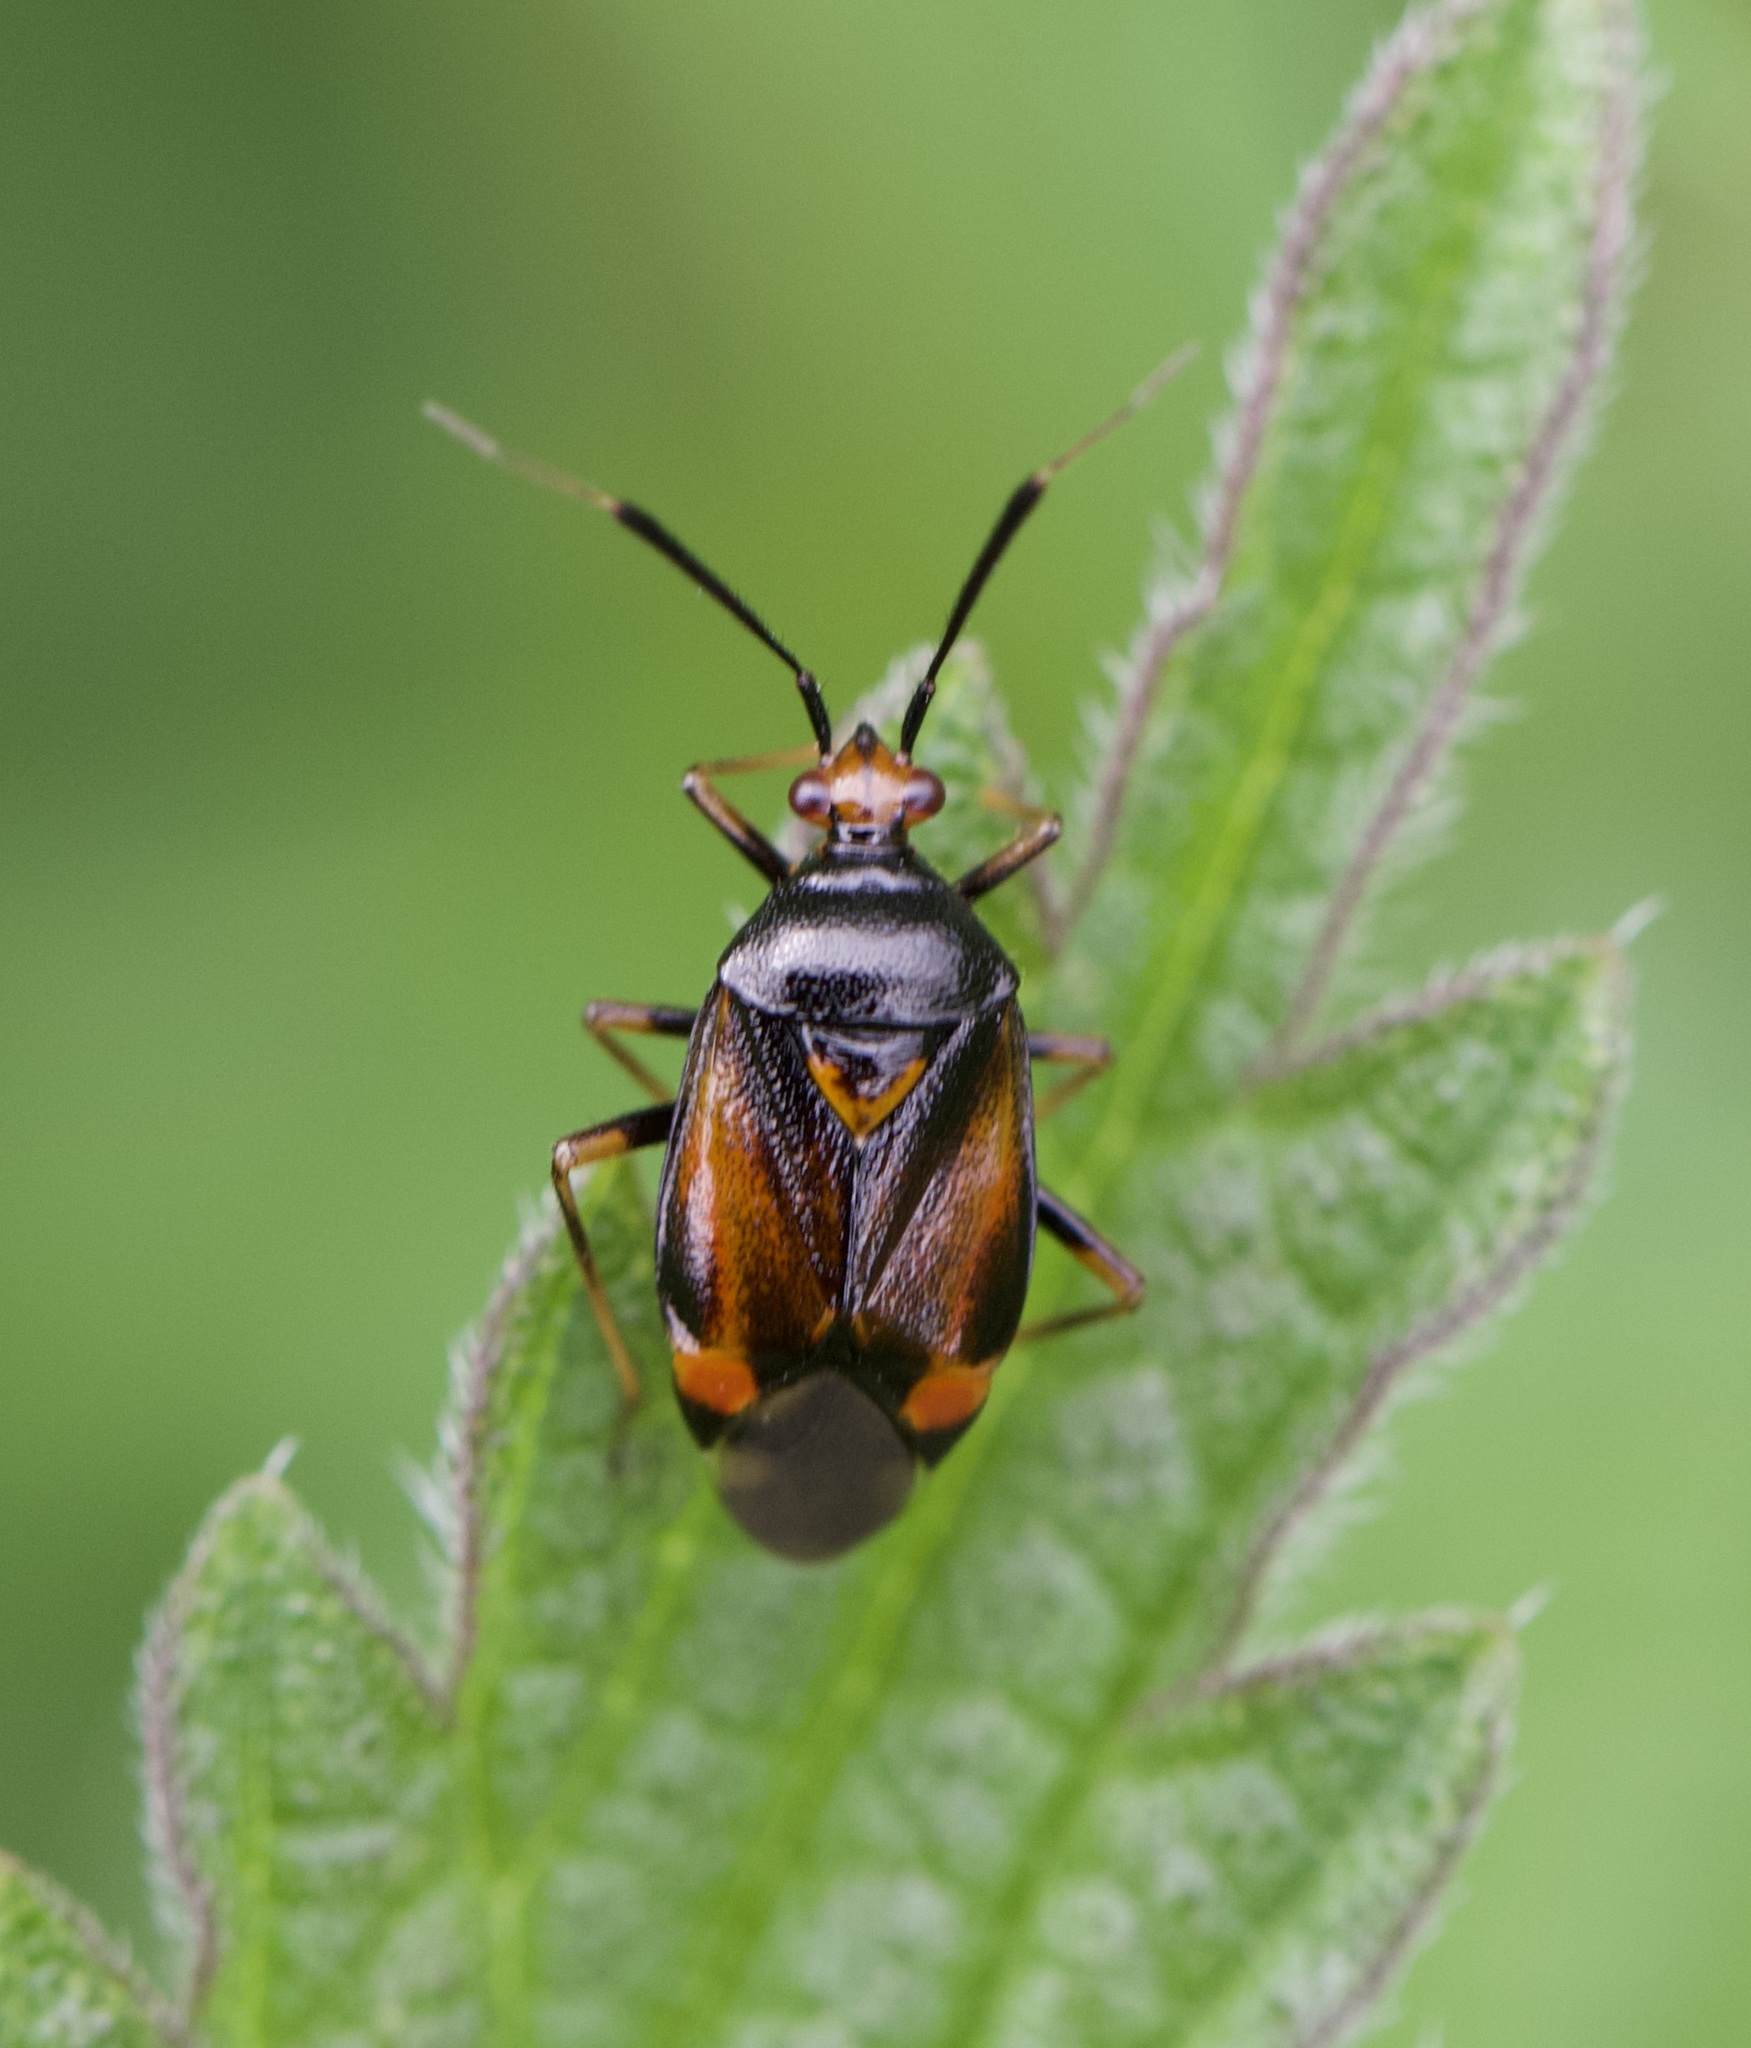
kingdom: Animalia
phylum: Arthropoda
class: Insecta
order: Hemiptera
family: Miridae
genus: Deraeocoris
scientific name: Deraeocoris ruber
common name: Plant bug
